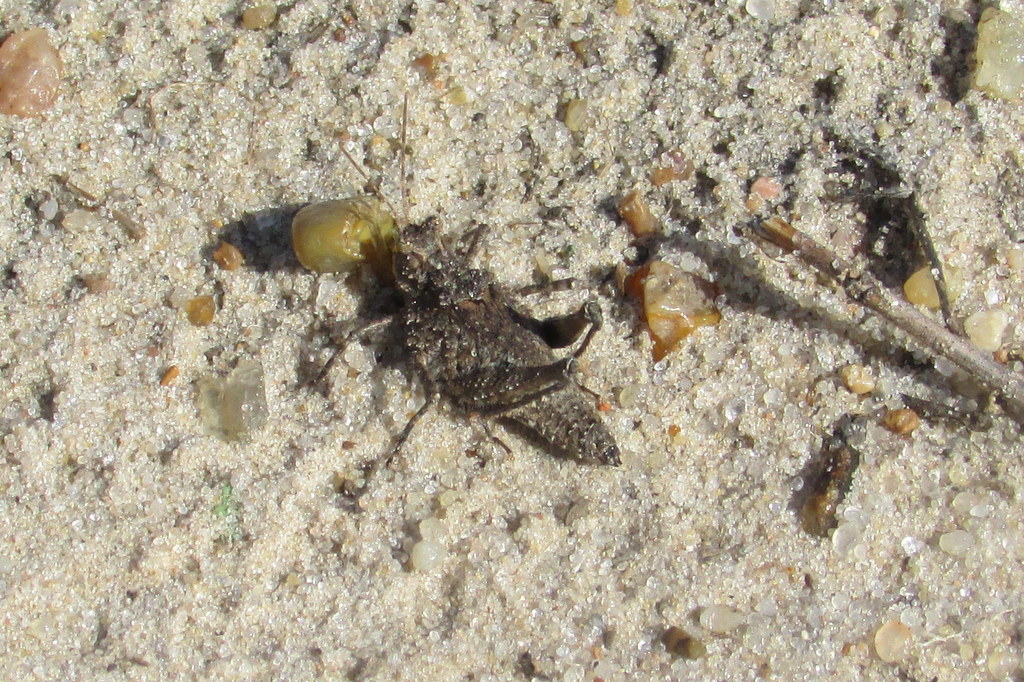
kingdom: Animalia
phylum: Arthropoda
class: Insecta
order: Orthoptera
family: Ommexechidae
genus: Ommexecha
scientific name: Ommexecha virens
